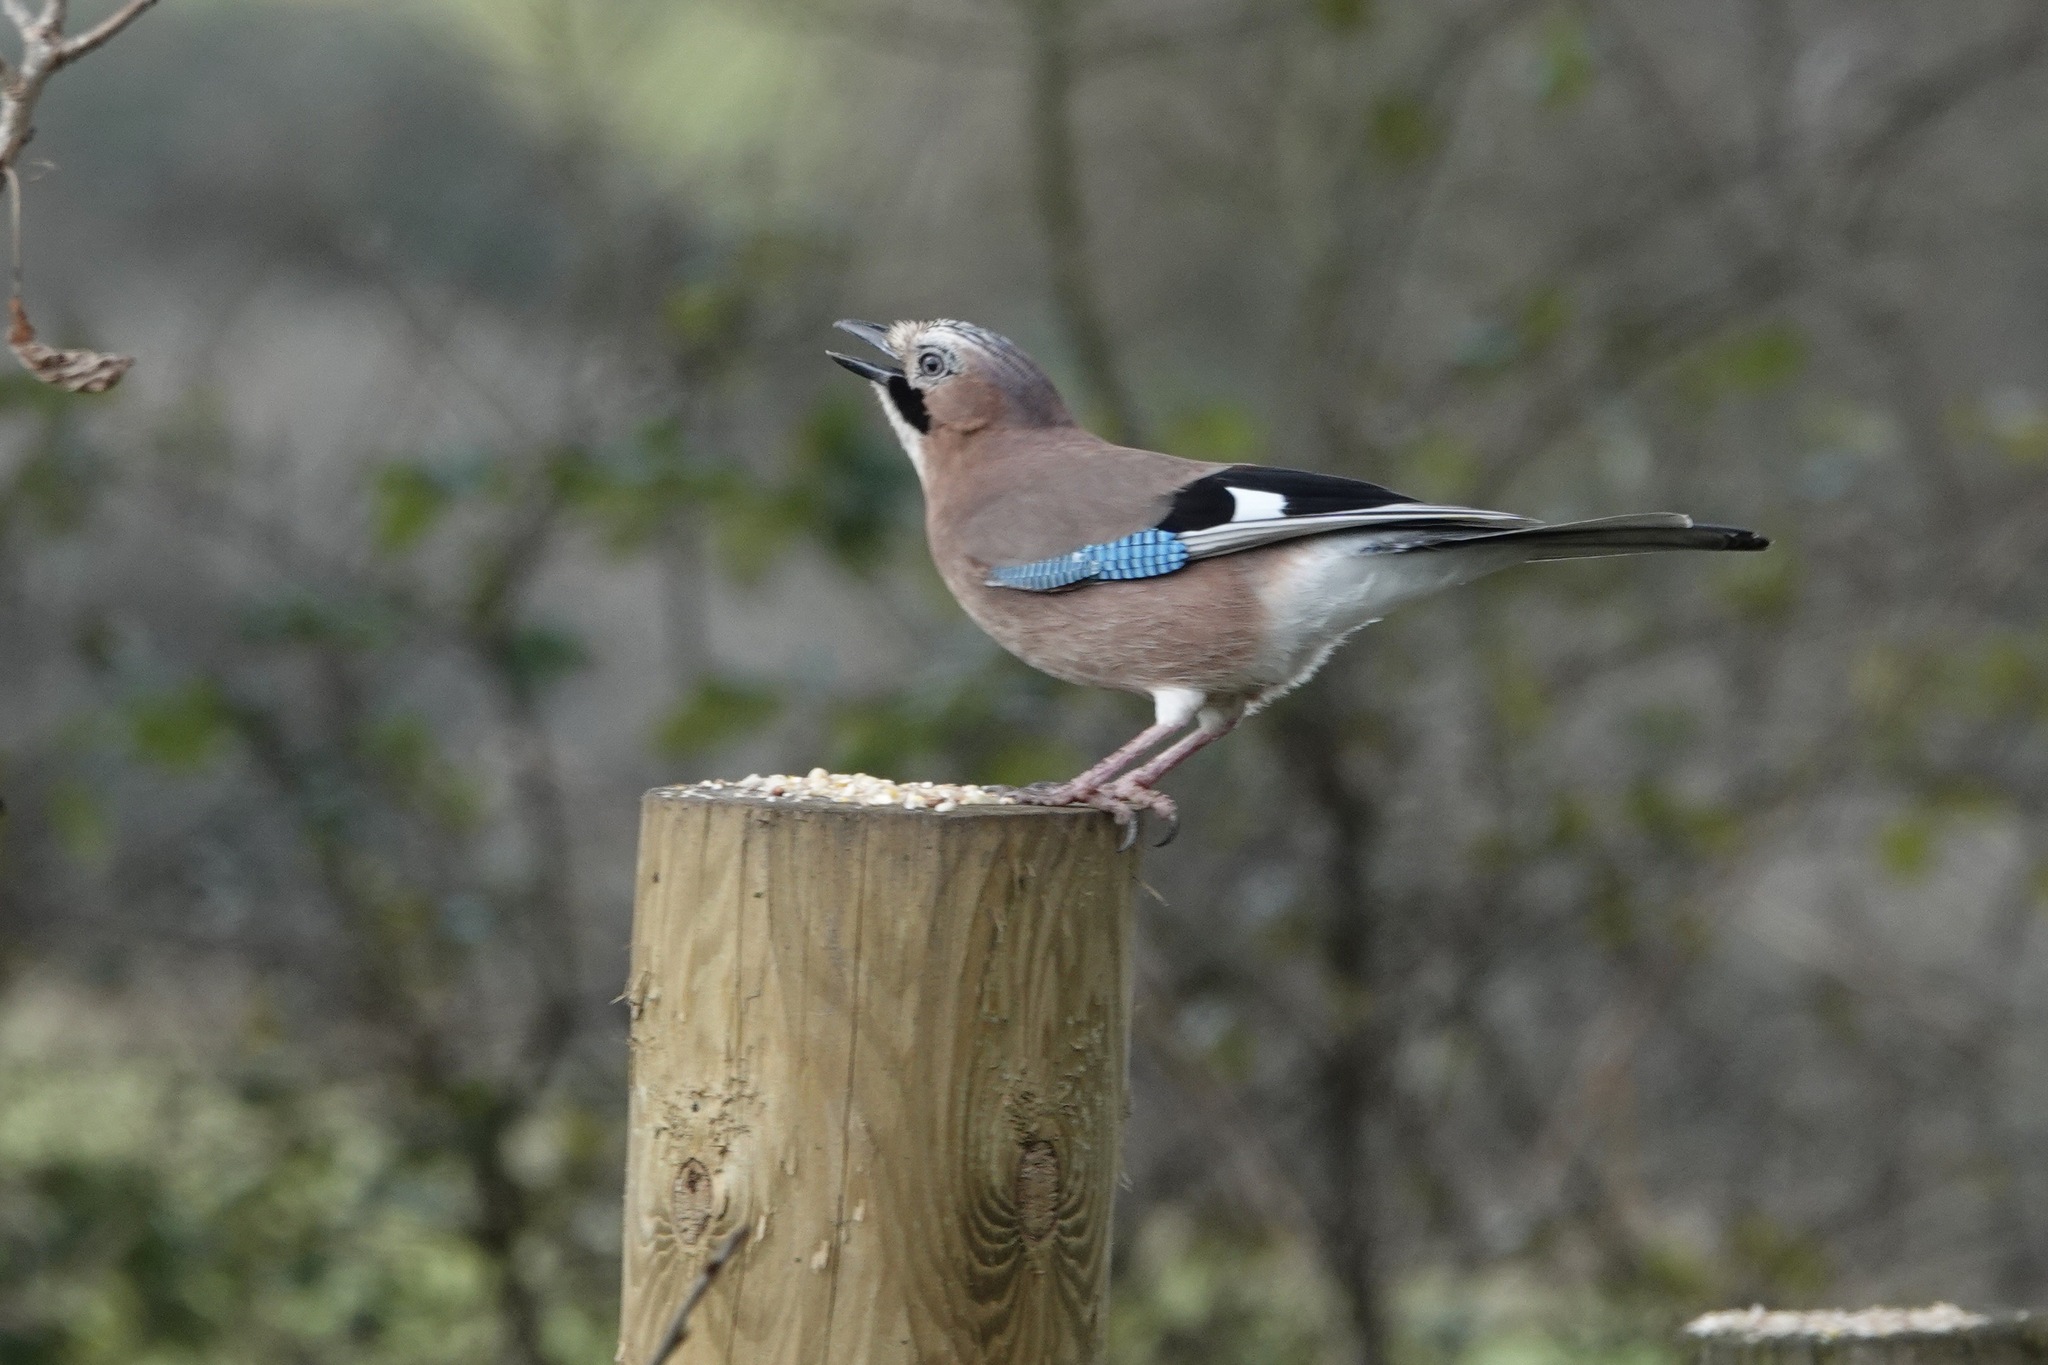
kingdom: Animalia
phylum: Chordata
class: Aves
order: Passeriformes
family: Corvidae
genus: Garrulus
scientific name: Garrulus glandarius
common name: Eurasian jay
